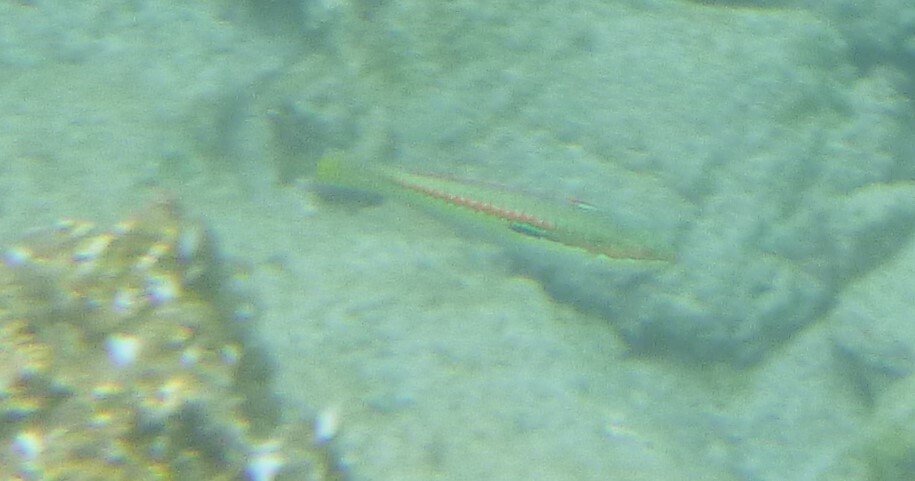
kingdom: Animalia
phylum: Chordata
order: Perciformes
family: Labridae
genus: Coris
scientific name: Coris julis
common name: Rainbow wrasse
